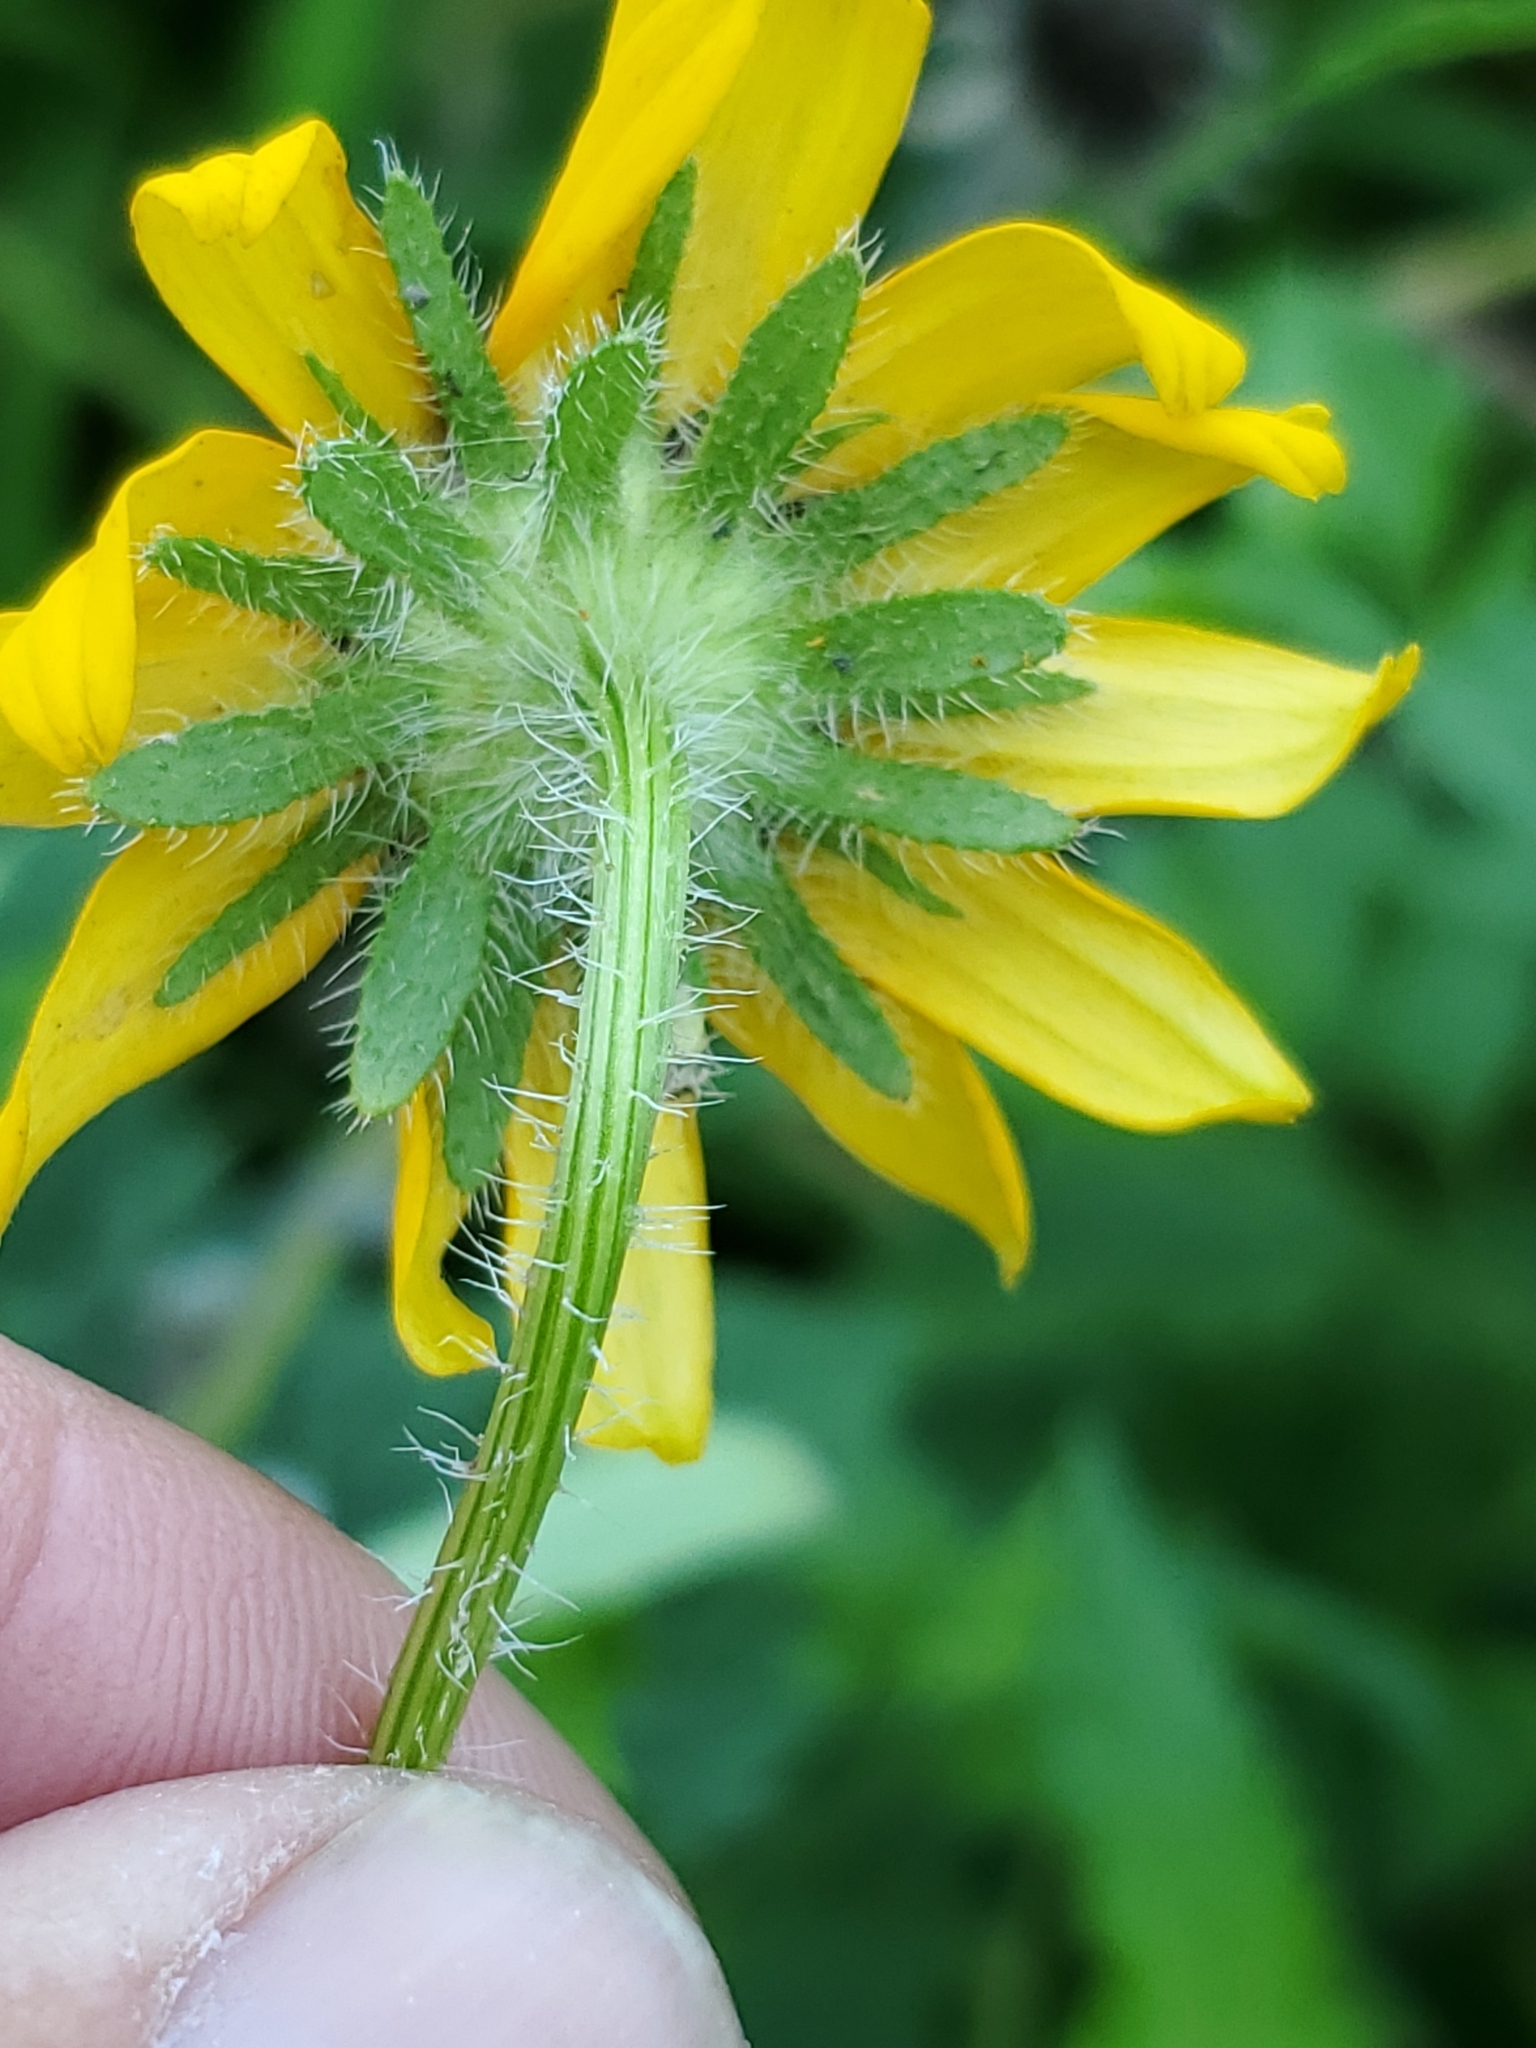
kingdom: Plantae
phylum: Tracheophyta
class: Magnoliopsida
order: Asterales
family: Asteraceae
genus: Rudbeckia
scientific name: Rudbeckia hirta
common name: Black-eyed-susan
